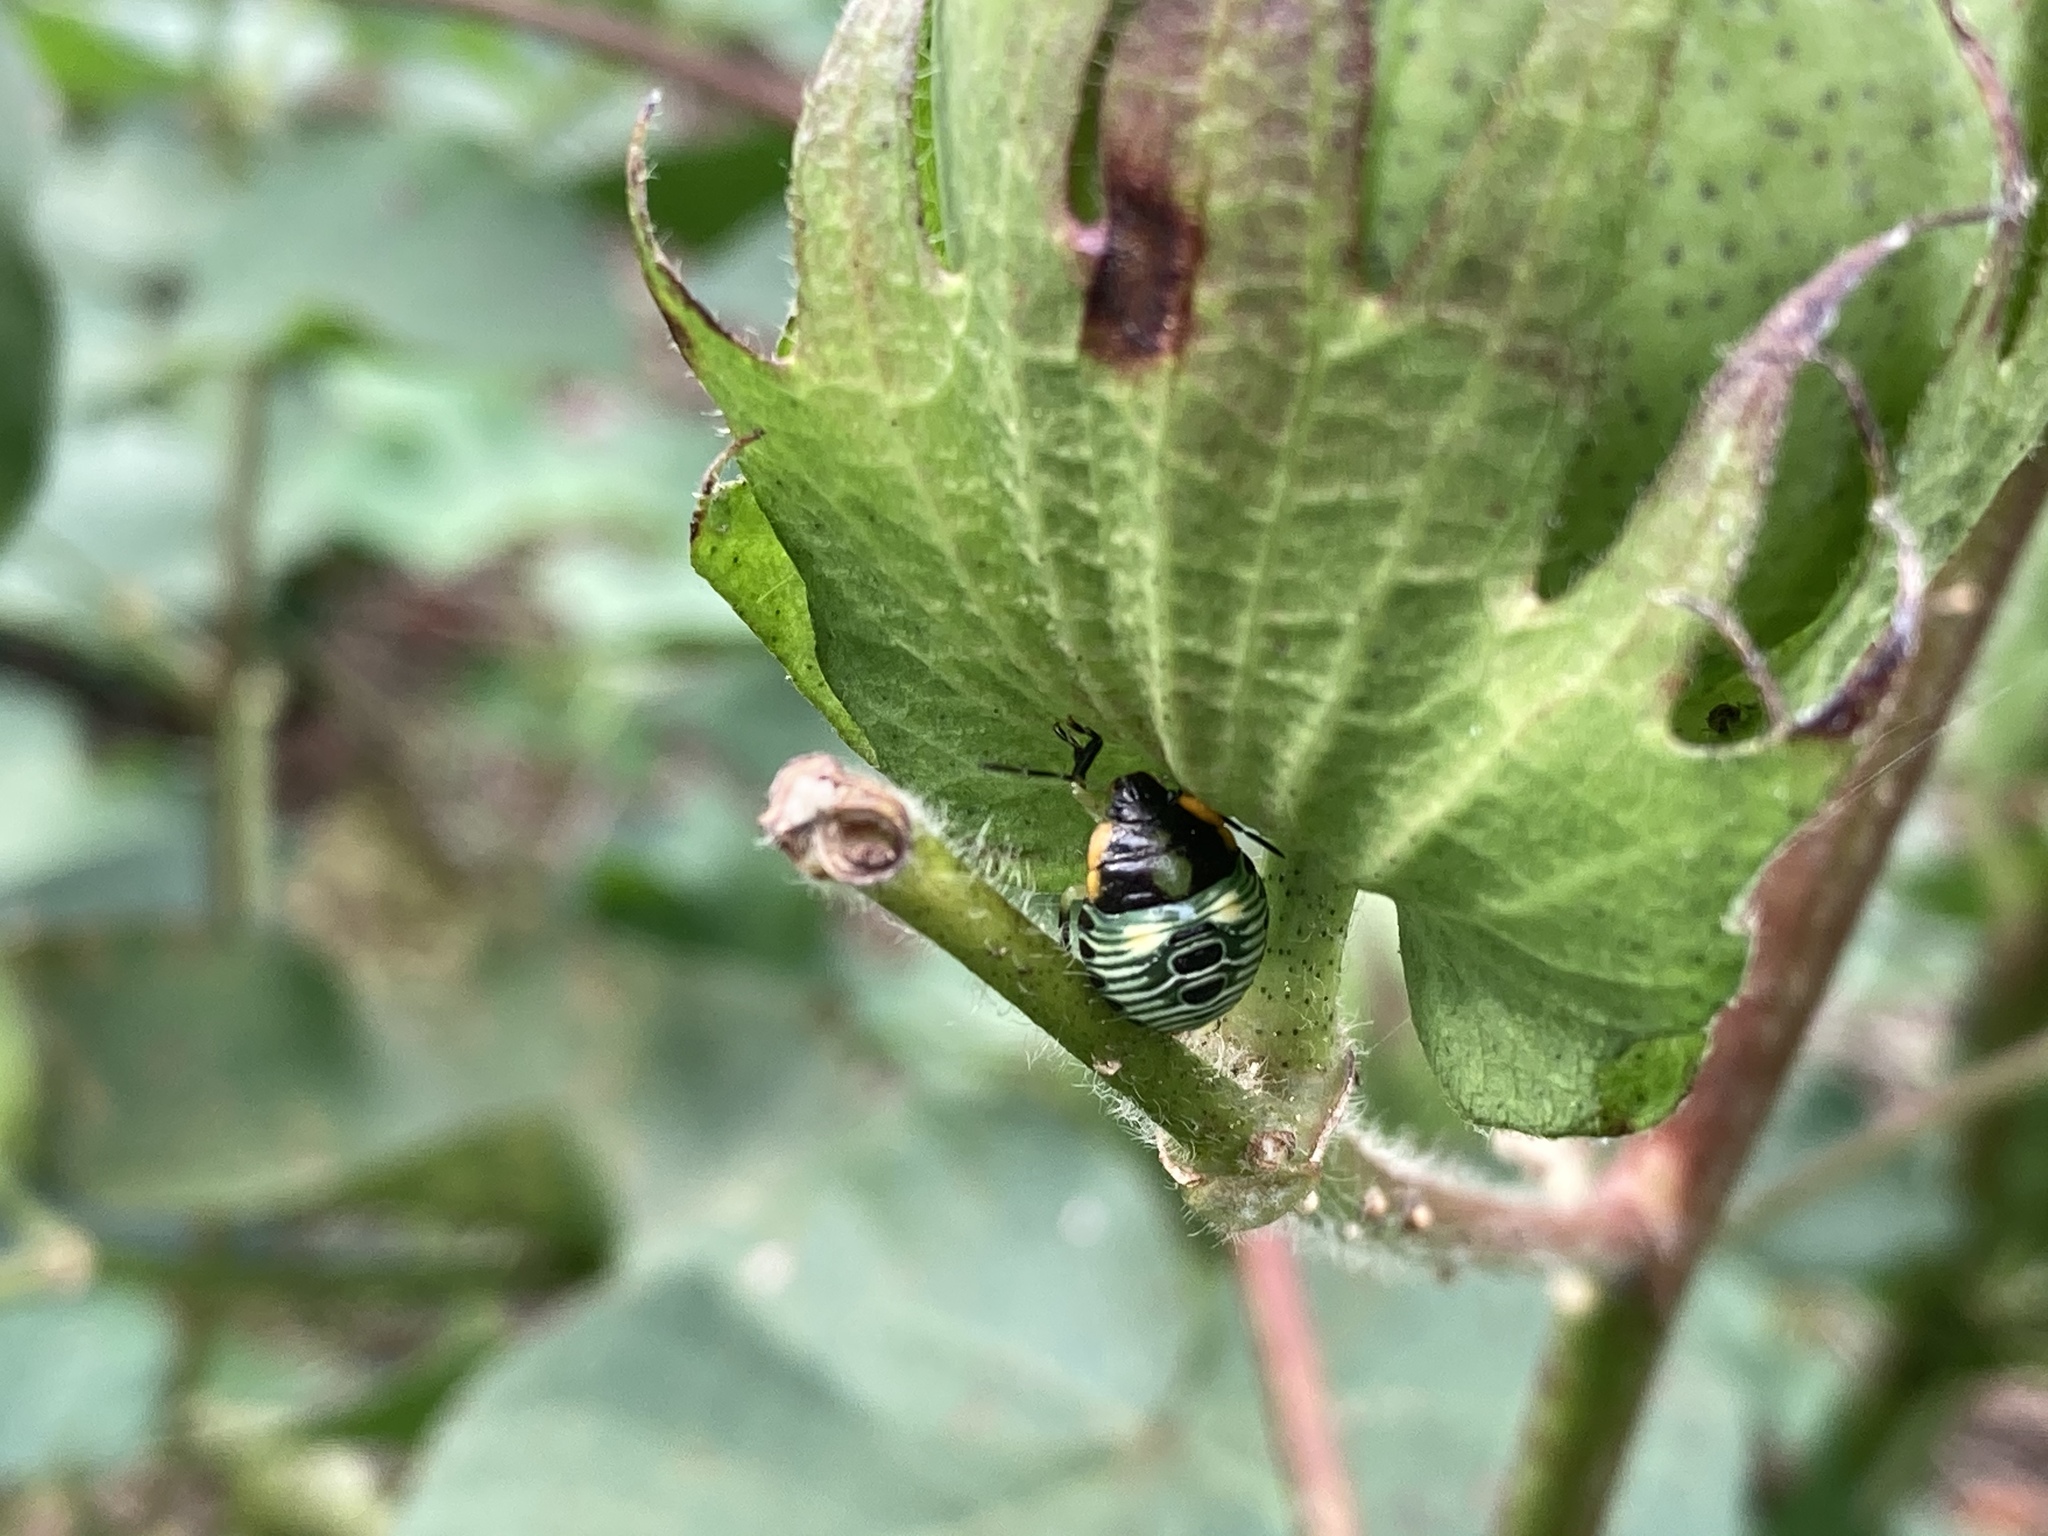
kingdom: Animalia
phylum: Arthropoda
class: Insecta
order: Hemiptera
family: Pentatomidae
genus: Chinavia
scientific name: Chinavia hilaris
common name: Green stink bug
